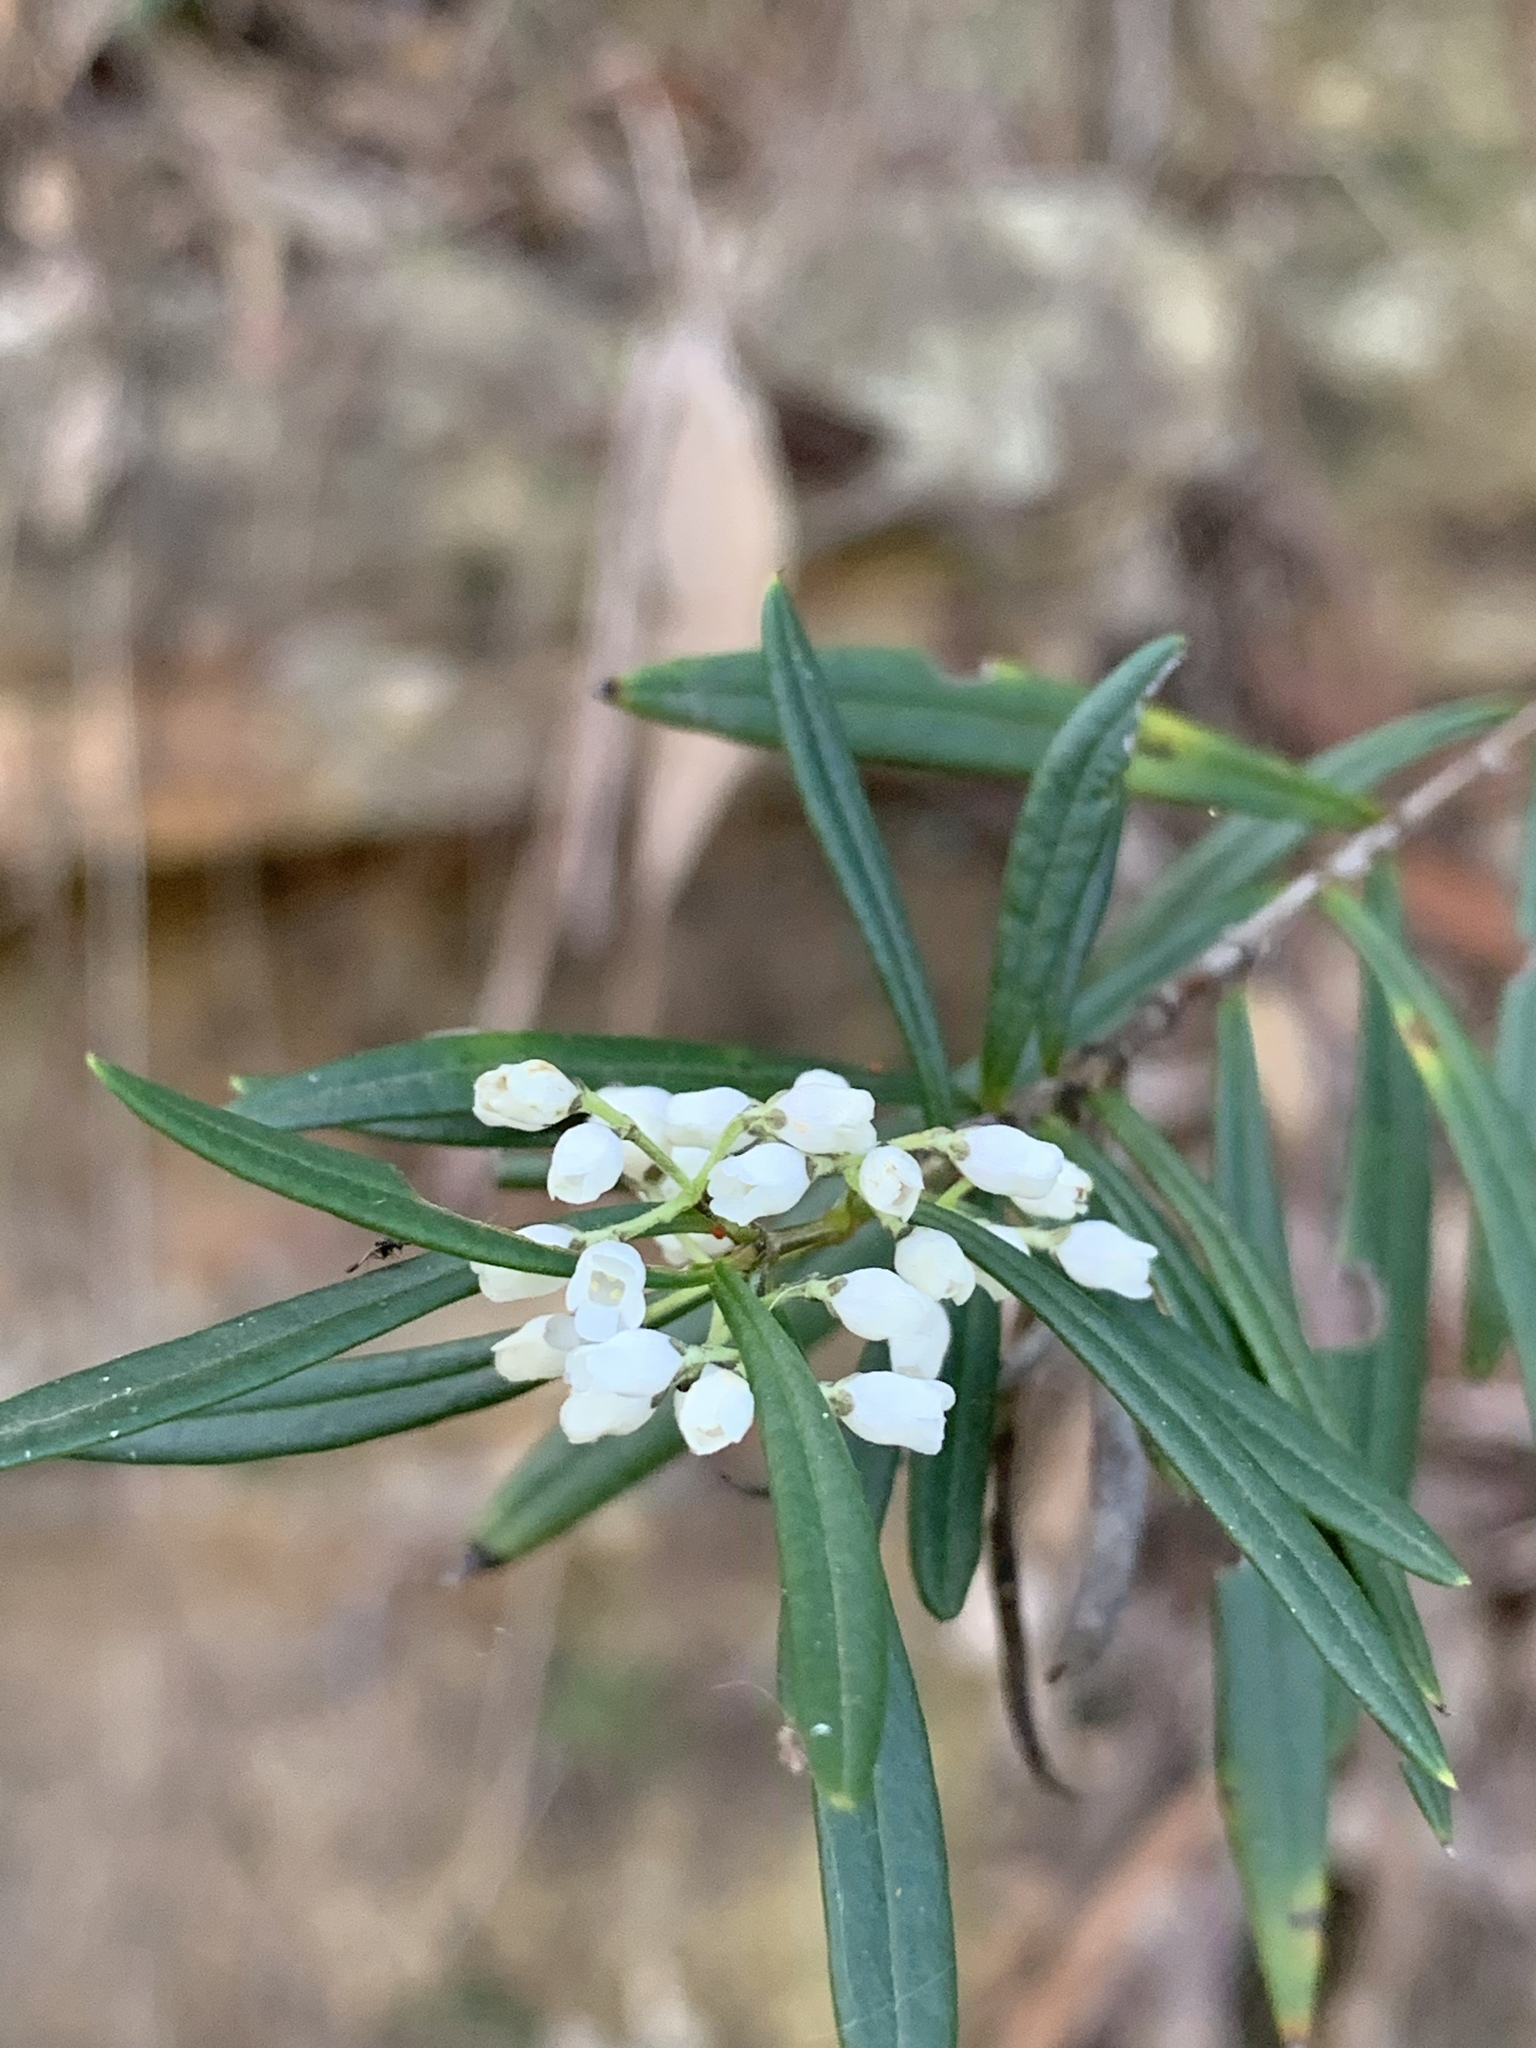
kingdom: Plantae
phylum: Tracheophyta
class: Magnoliopsida
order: Gentianales
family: Loganiaceae
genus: Logania
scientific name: Logania albiflora
